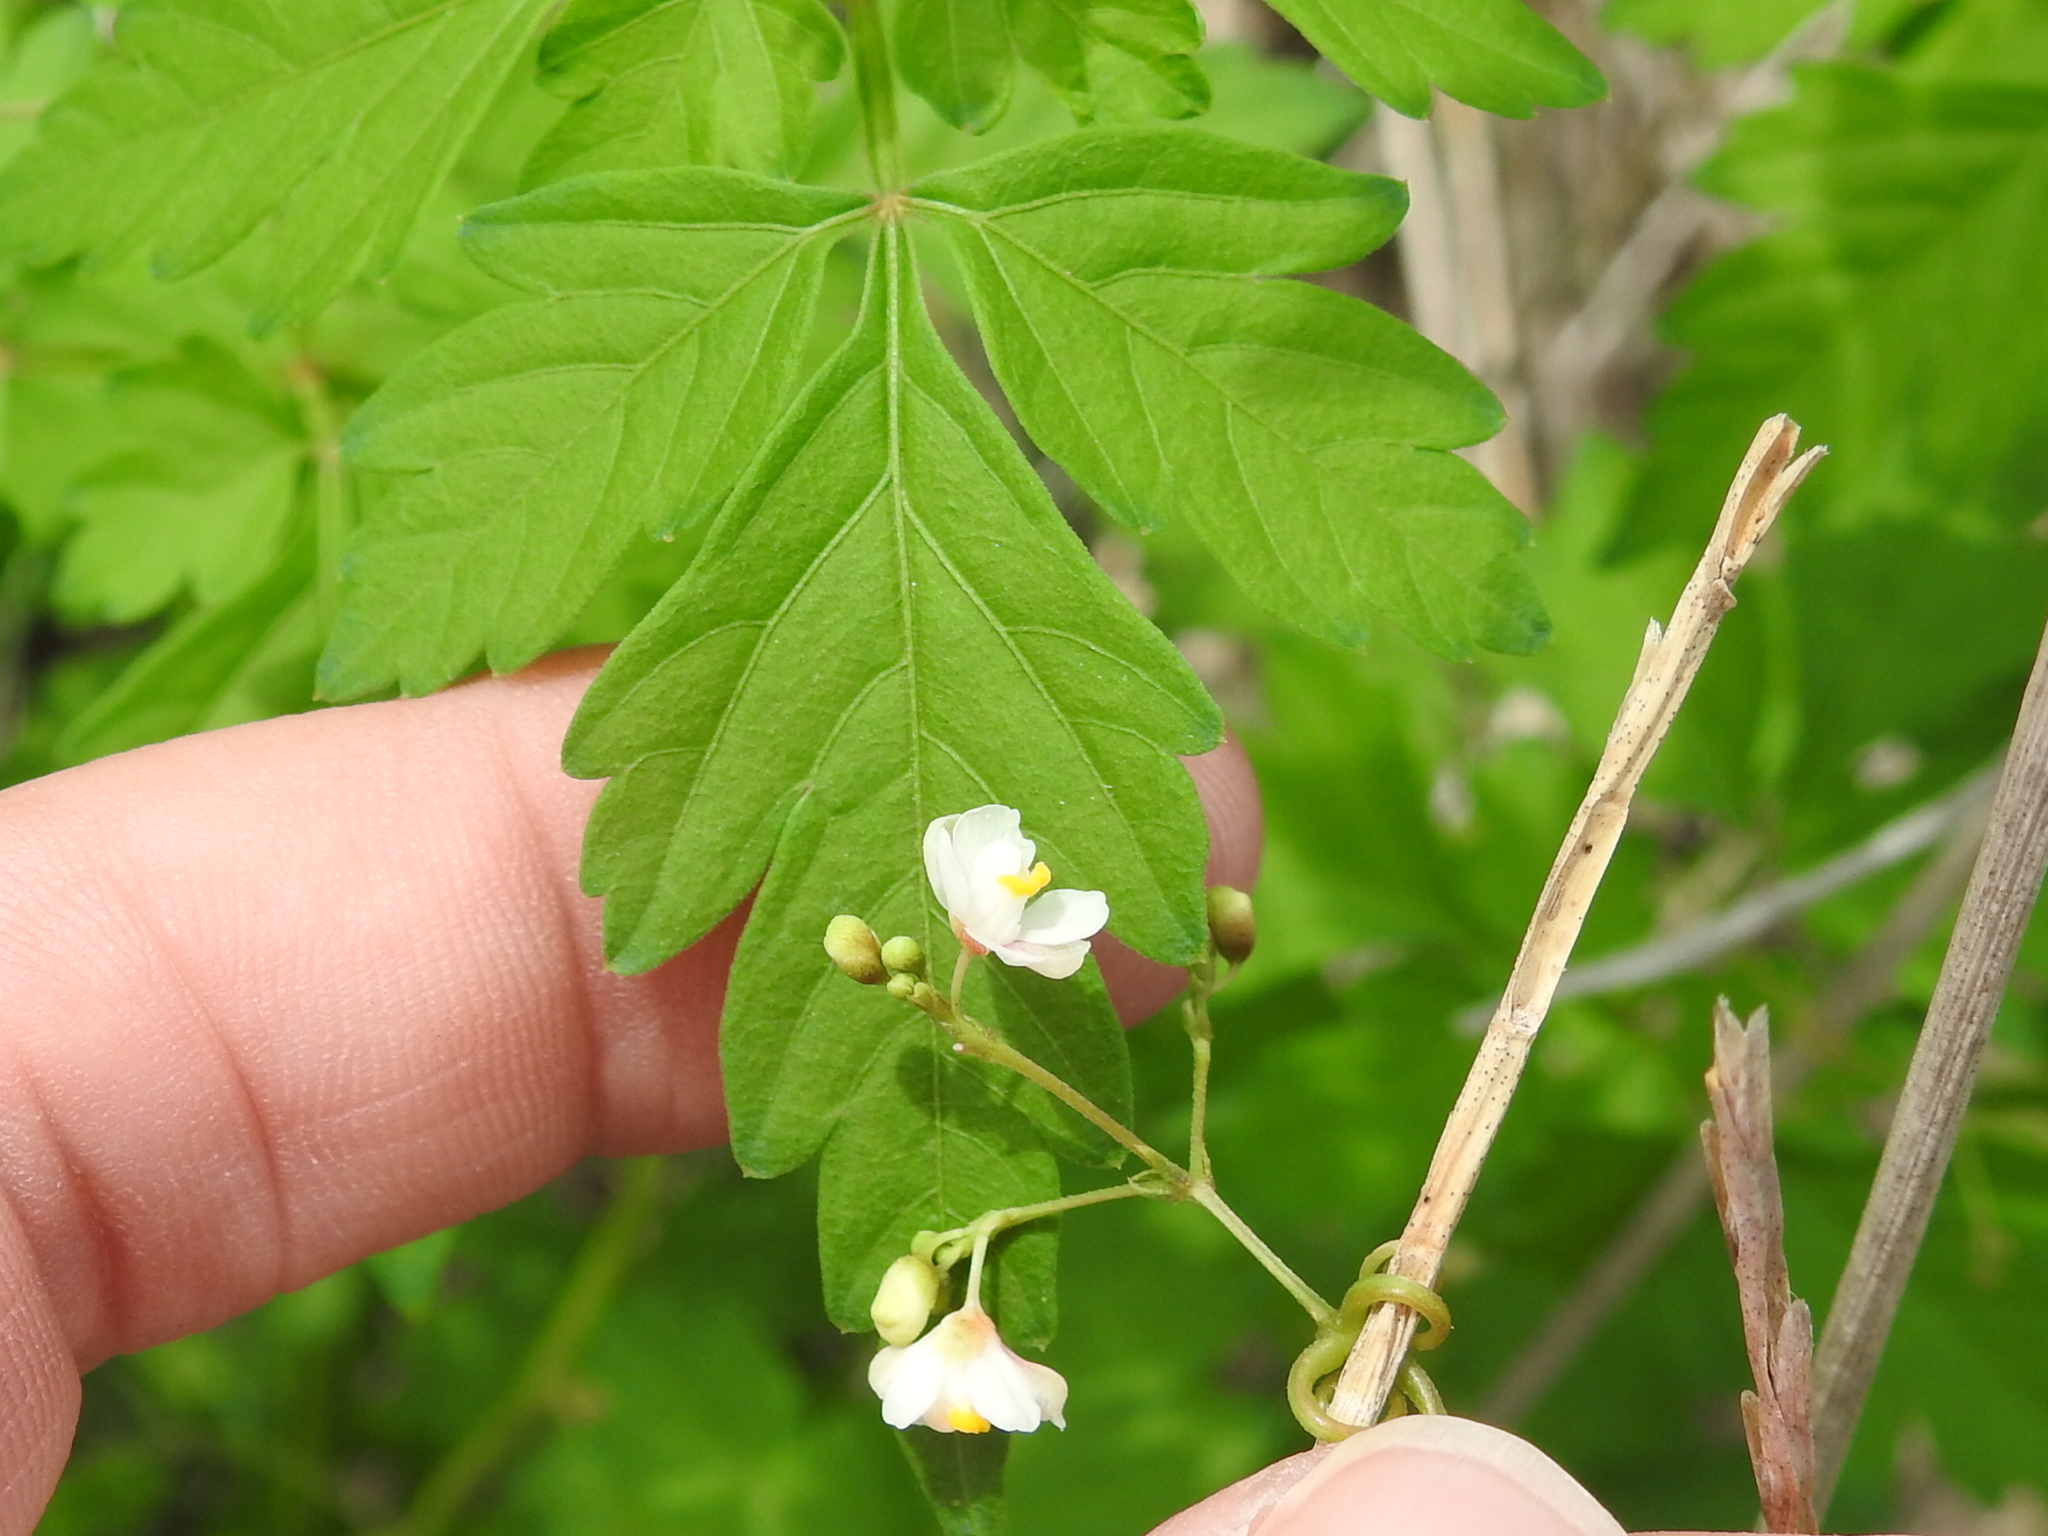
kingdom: Plantae
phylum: Tracheophyta
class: Magnoliopsida
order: Sapindales
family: Sapindaceae
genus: Cardiospermum
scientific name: Cardiospermum halicacabum
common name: Balloon vine
